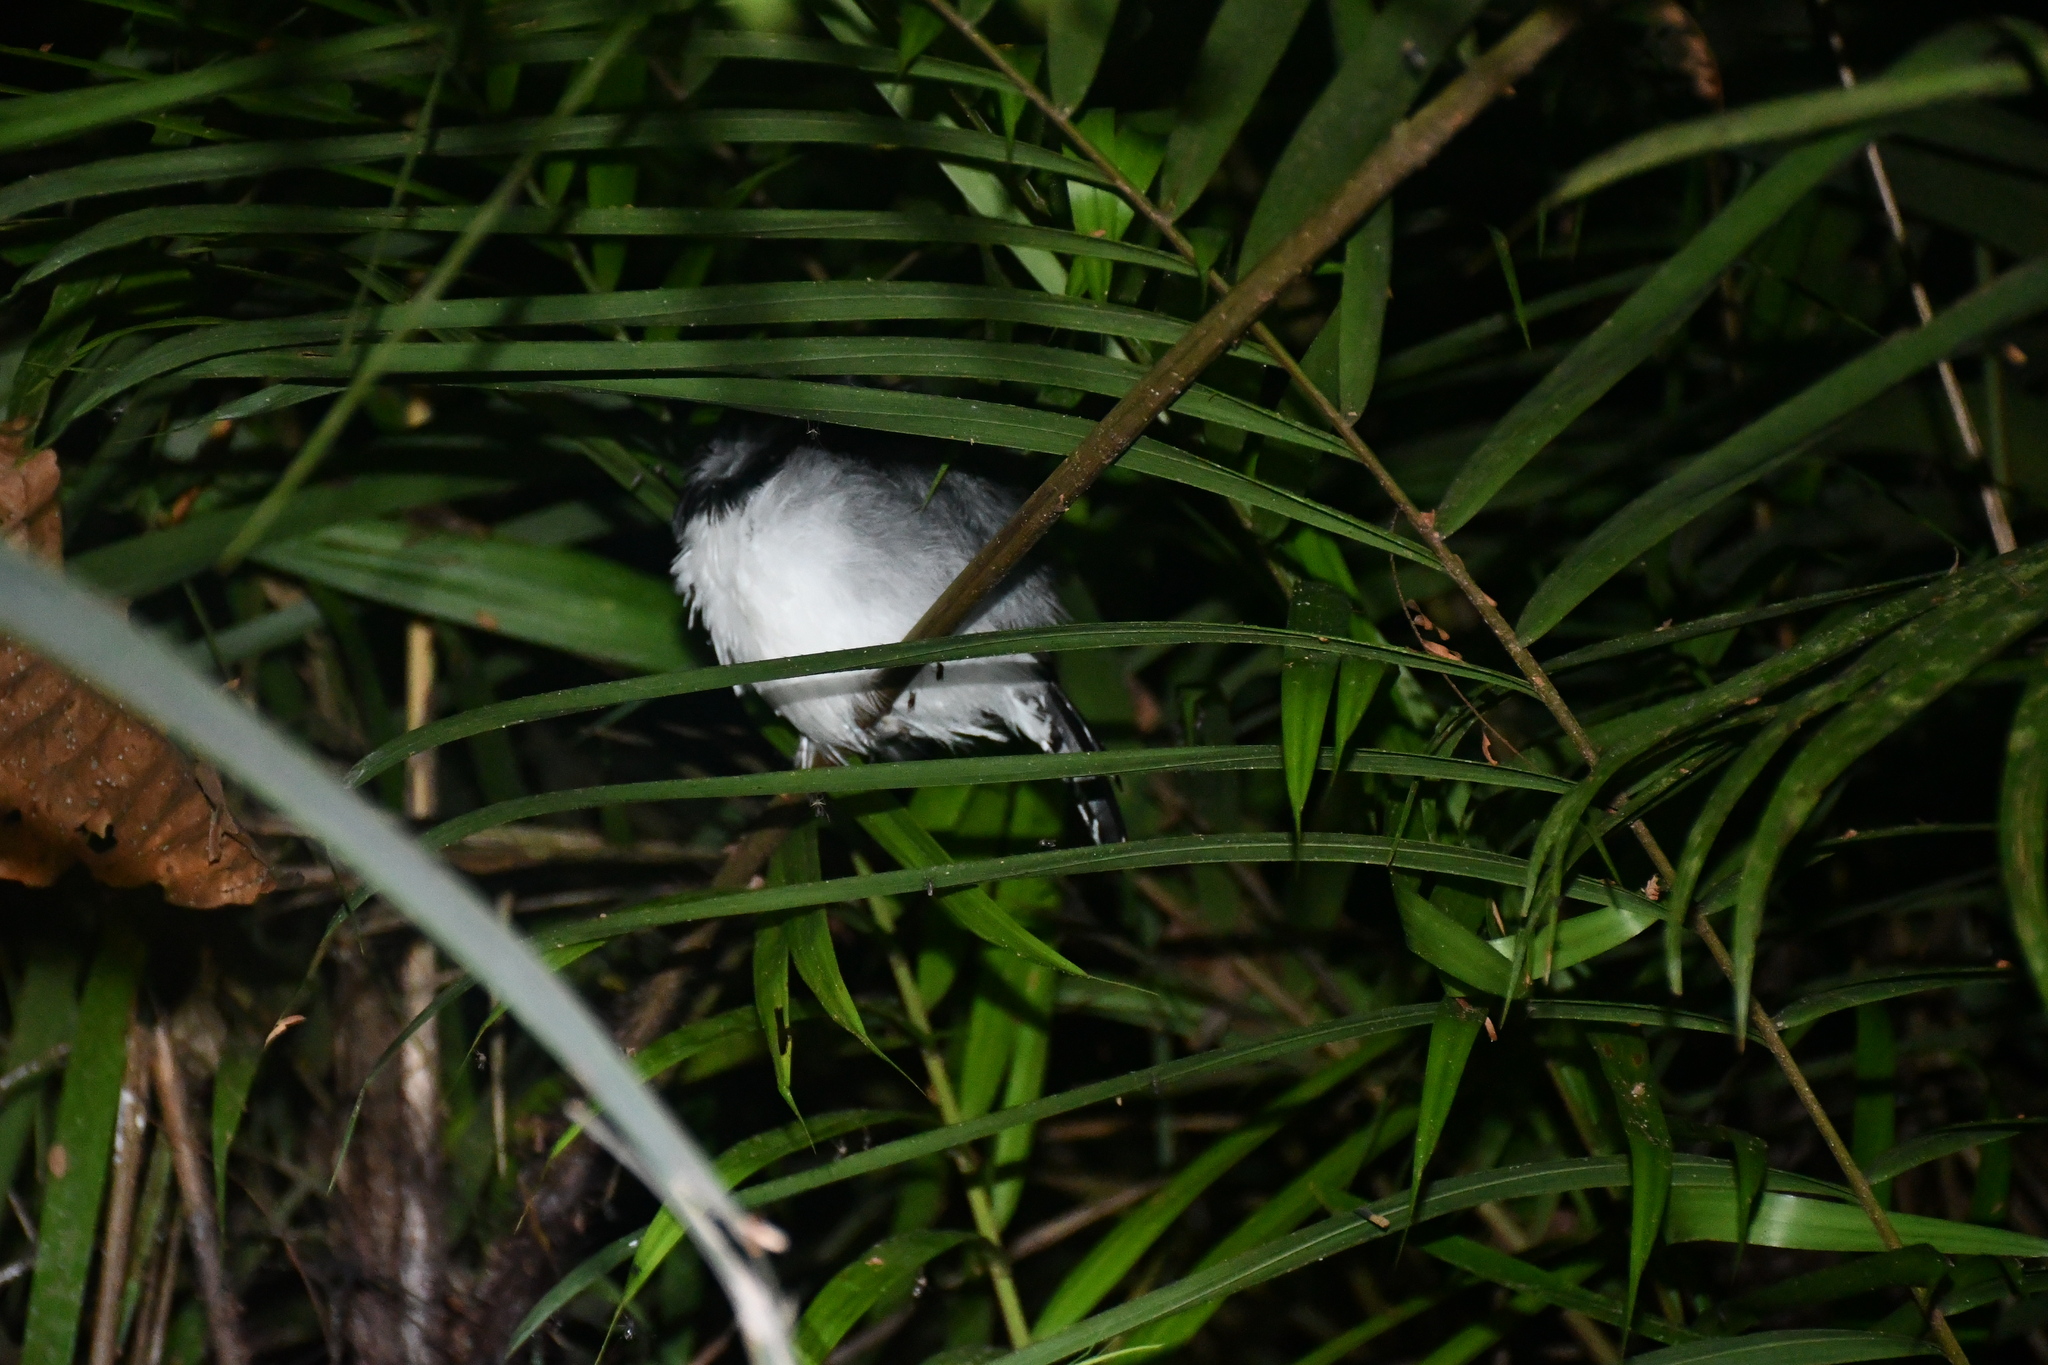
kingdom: Animalia
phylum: Chordata
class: Aves
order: Passeriformes
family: Thamnophilidae
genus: Taraba
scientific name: Taraba major
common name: Great antshrike
